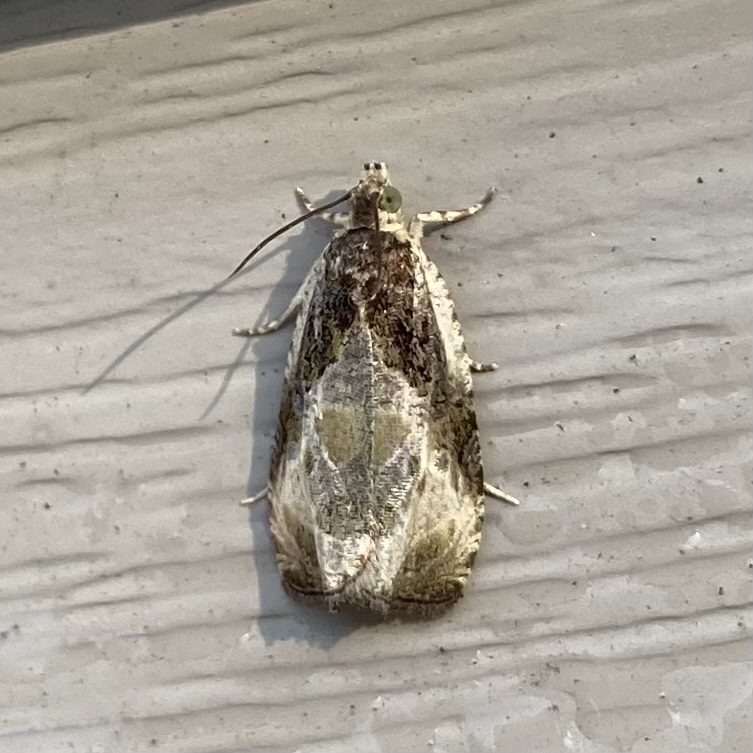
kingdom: Animalia
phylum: Arthropoda
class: Insecta
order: Lepidoptera
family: Tortricidae
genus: Olethreutes
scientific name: Olethreutes connectum
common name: Bunchberry leaffolder moth
